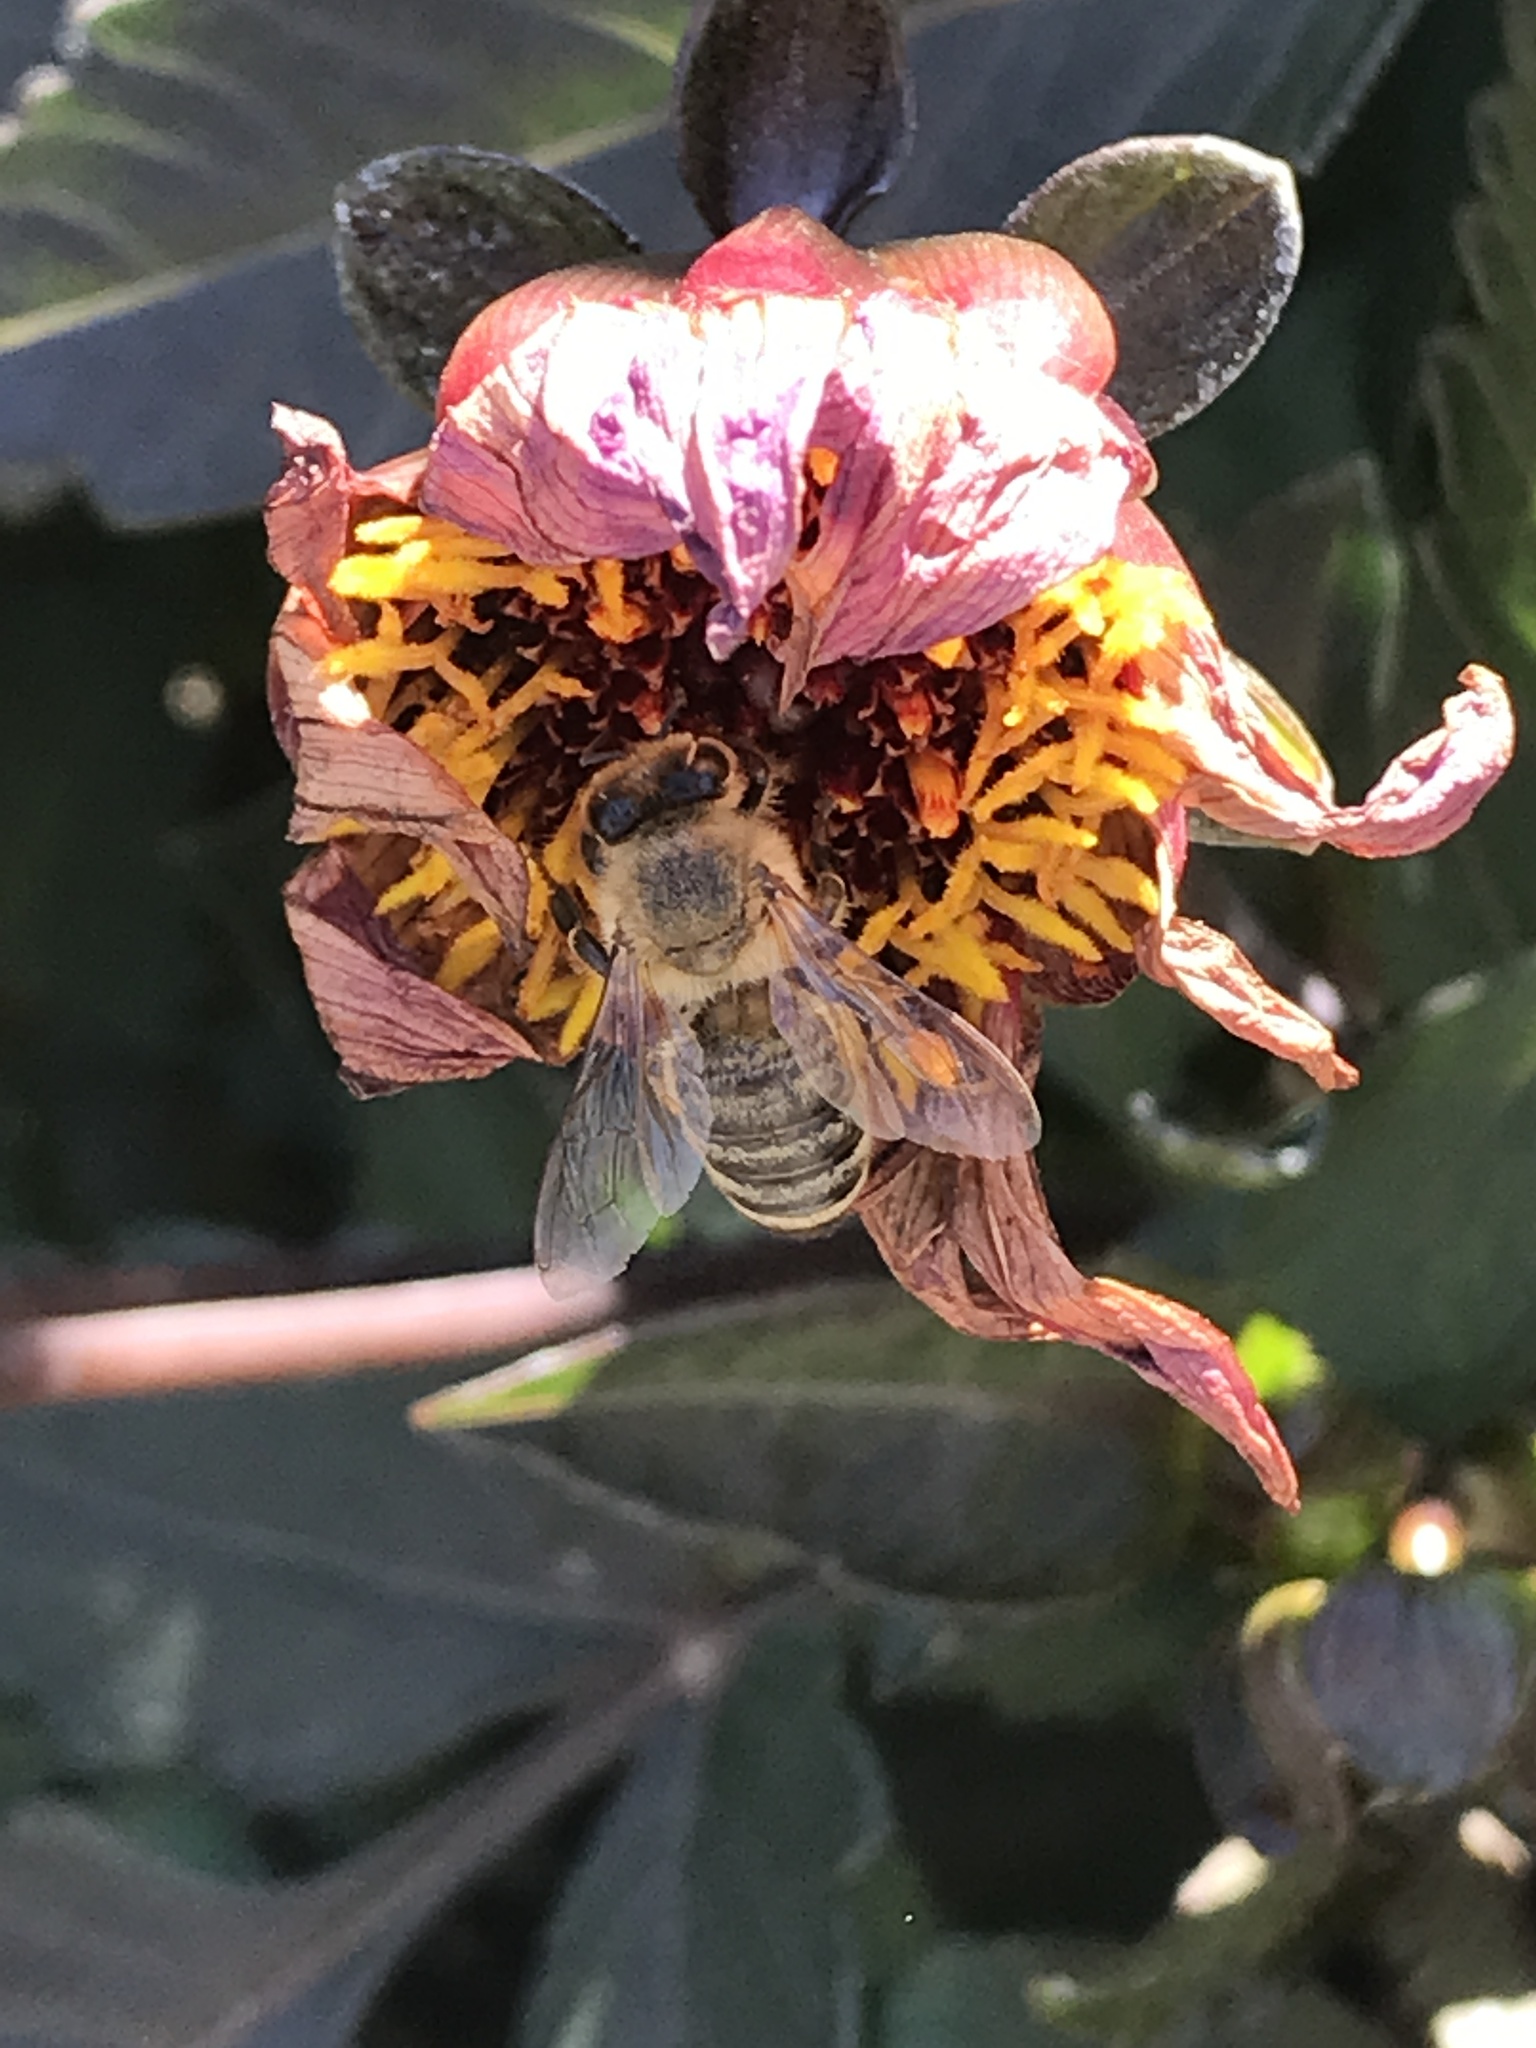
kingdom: Animalia
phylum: Arthropoda
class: Insecta
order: Hymenoptera
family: Apidae
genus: Apis
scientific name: Apis mellifera
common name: Honey bee
